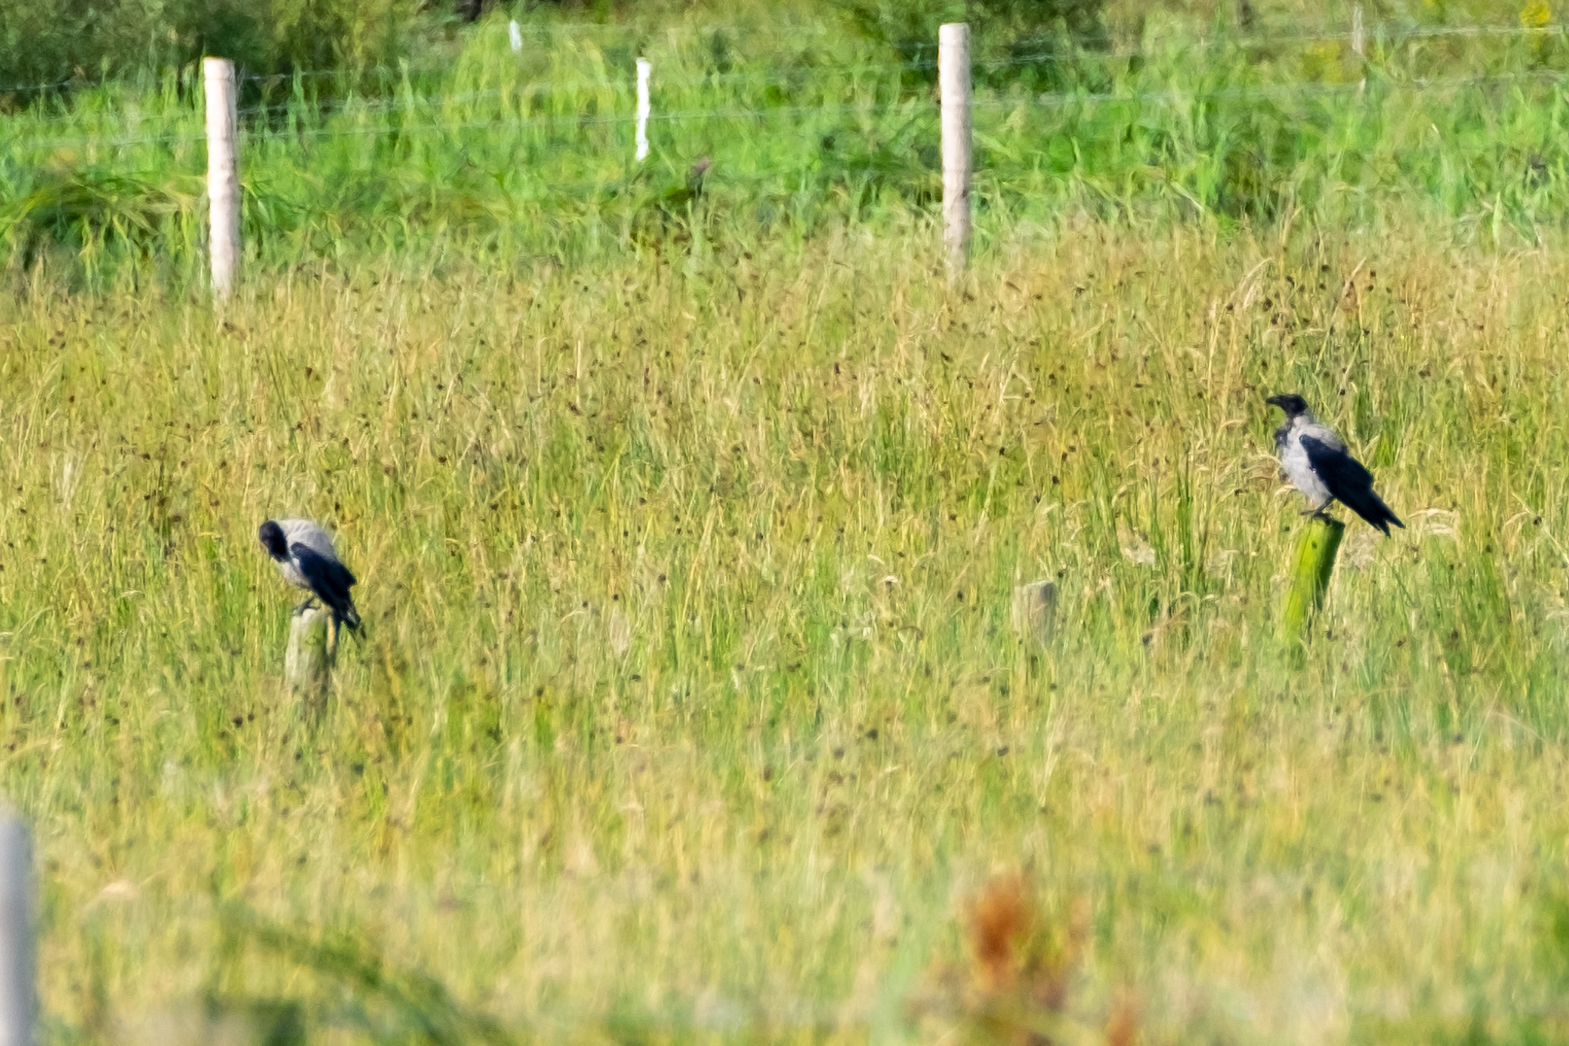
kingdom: Animalia
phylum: Chordata
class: Aves
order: Passeriformes
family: Corvidae
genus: Corvus
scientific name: Corvus cornix
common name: Hooded crow
